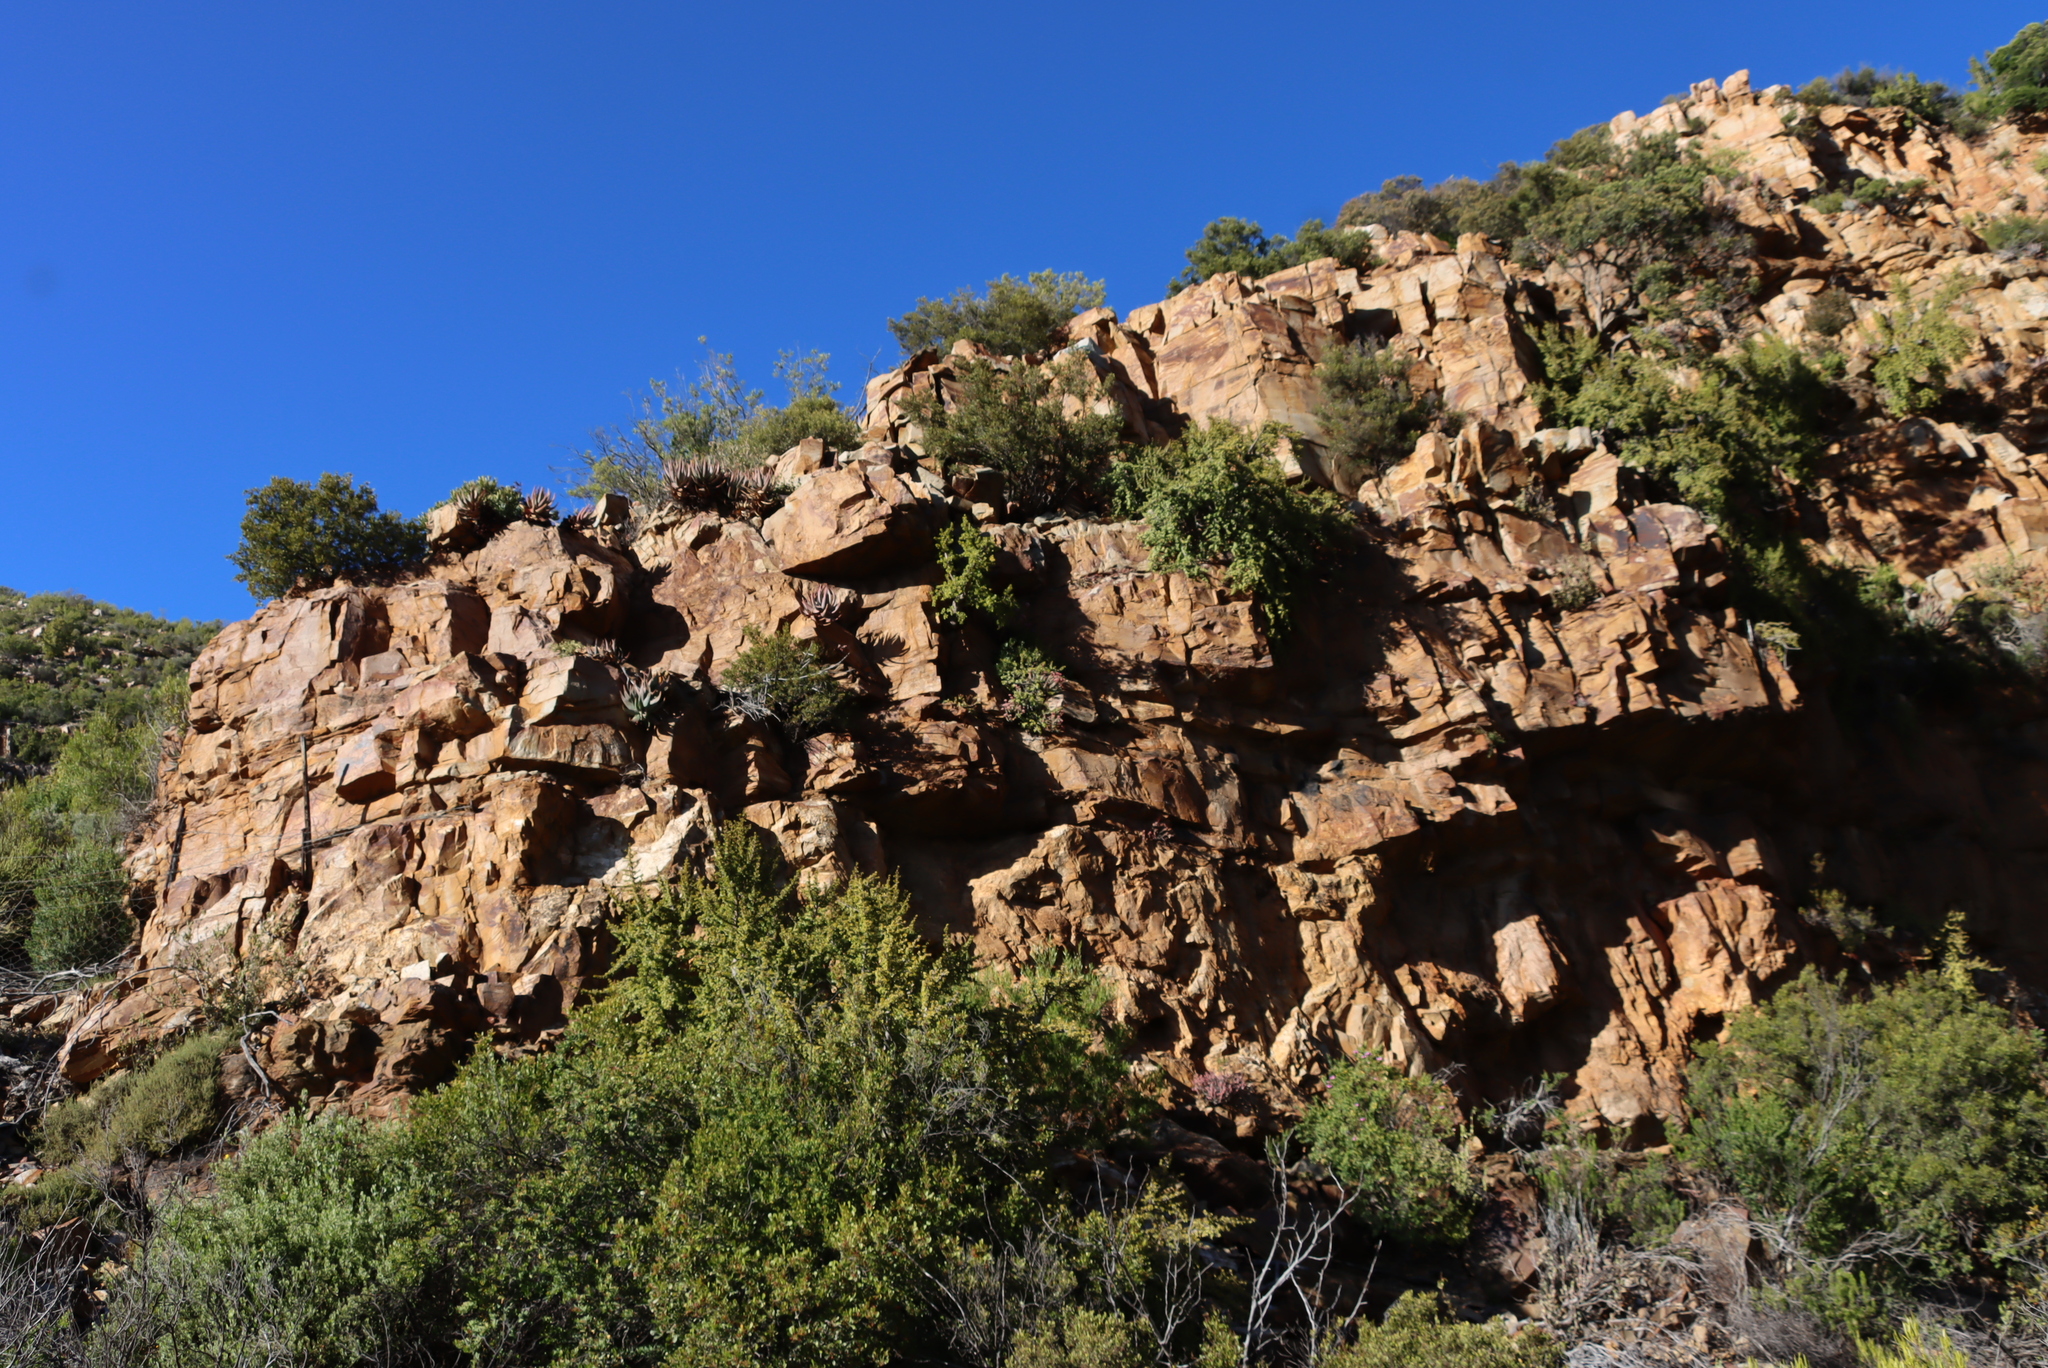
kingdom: Plantae
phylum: Tracheophyta
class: Magnoliopsida
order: Saxifragales
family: Crassulaceae
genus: Crassula
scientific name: Crassula rupestris
